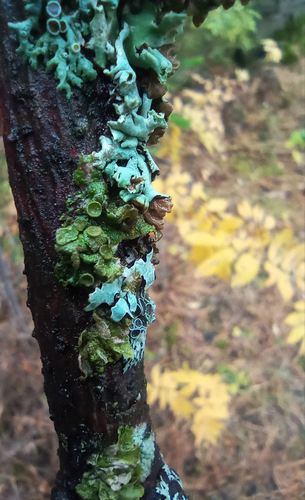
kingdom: Fungi
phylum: Ascomycota
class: Lecanoromycetes
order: Lecanorales
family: Parmeliaceae
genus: Melanohalea
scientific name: Melanohalea septentrionalis
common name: Northern camouflage lichen
